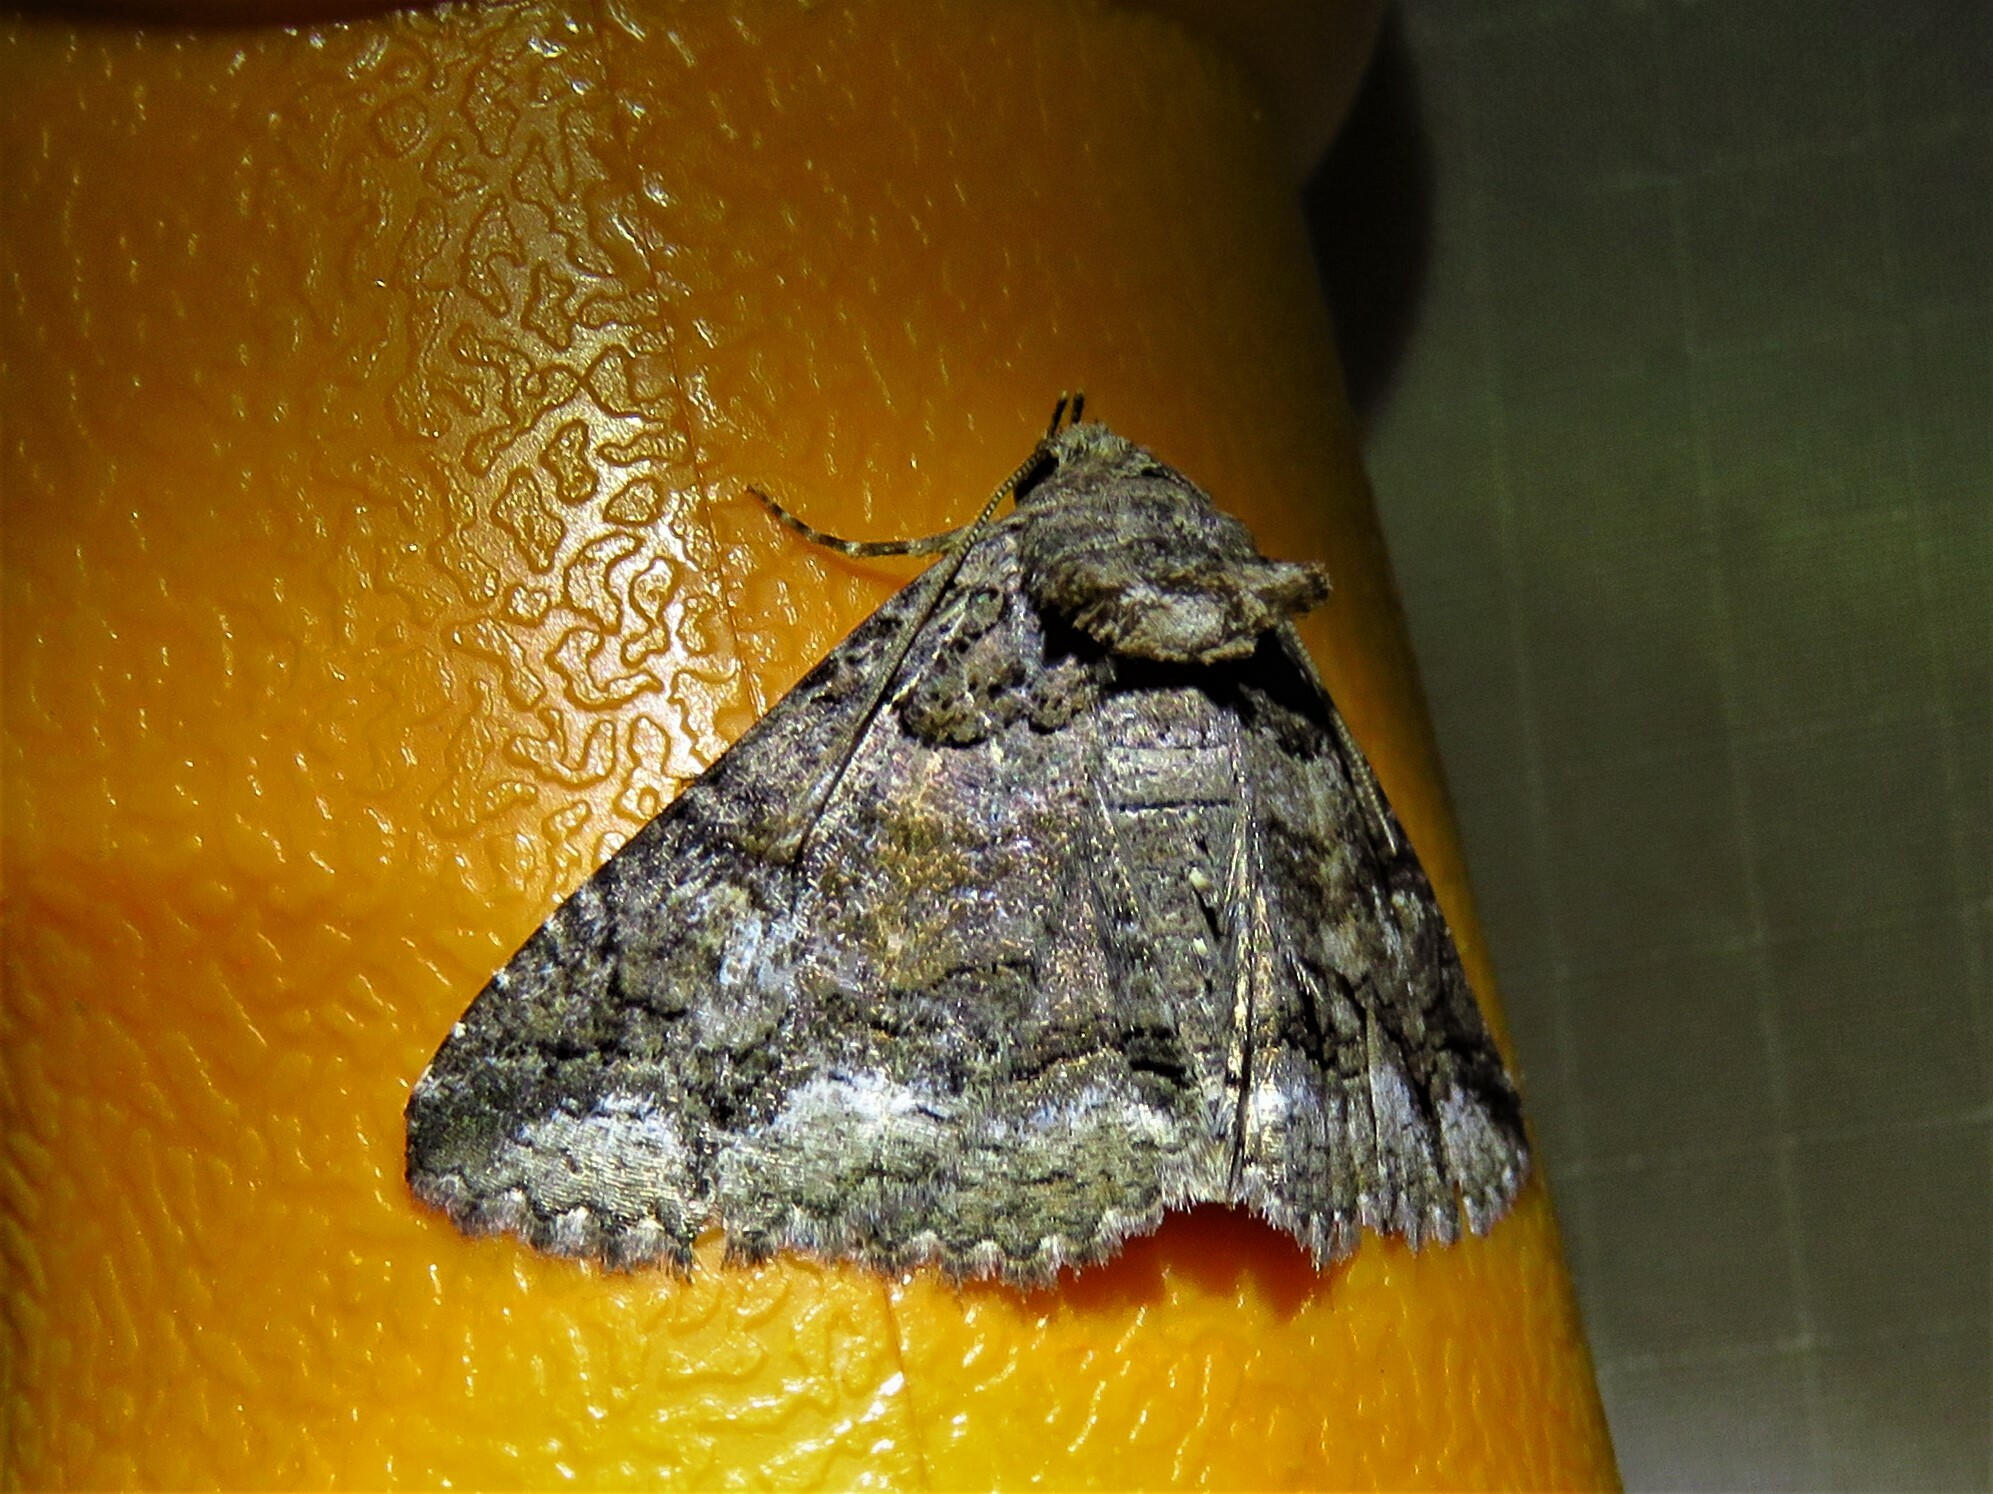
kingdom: Animalia
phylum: Arthropoda
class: Insecta
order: Lepidoptera
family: Erebidae
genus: Zale
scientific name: Zale edusina
